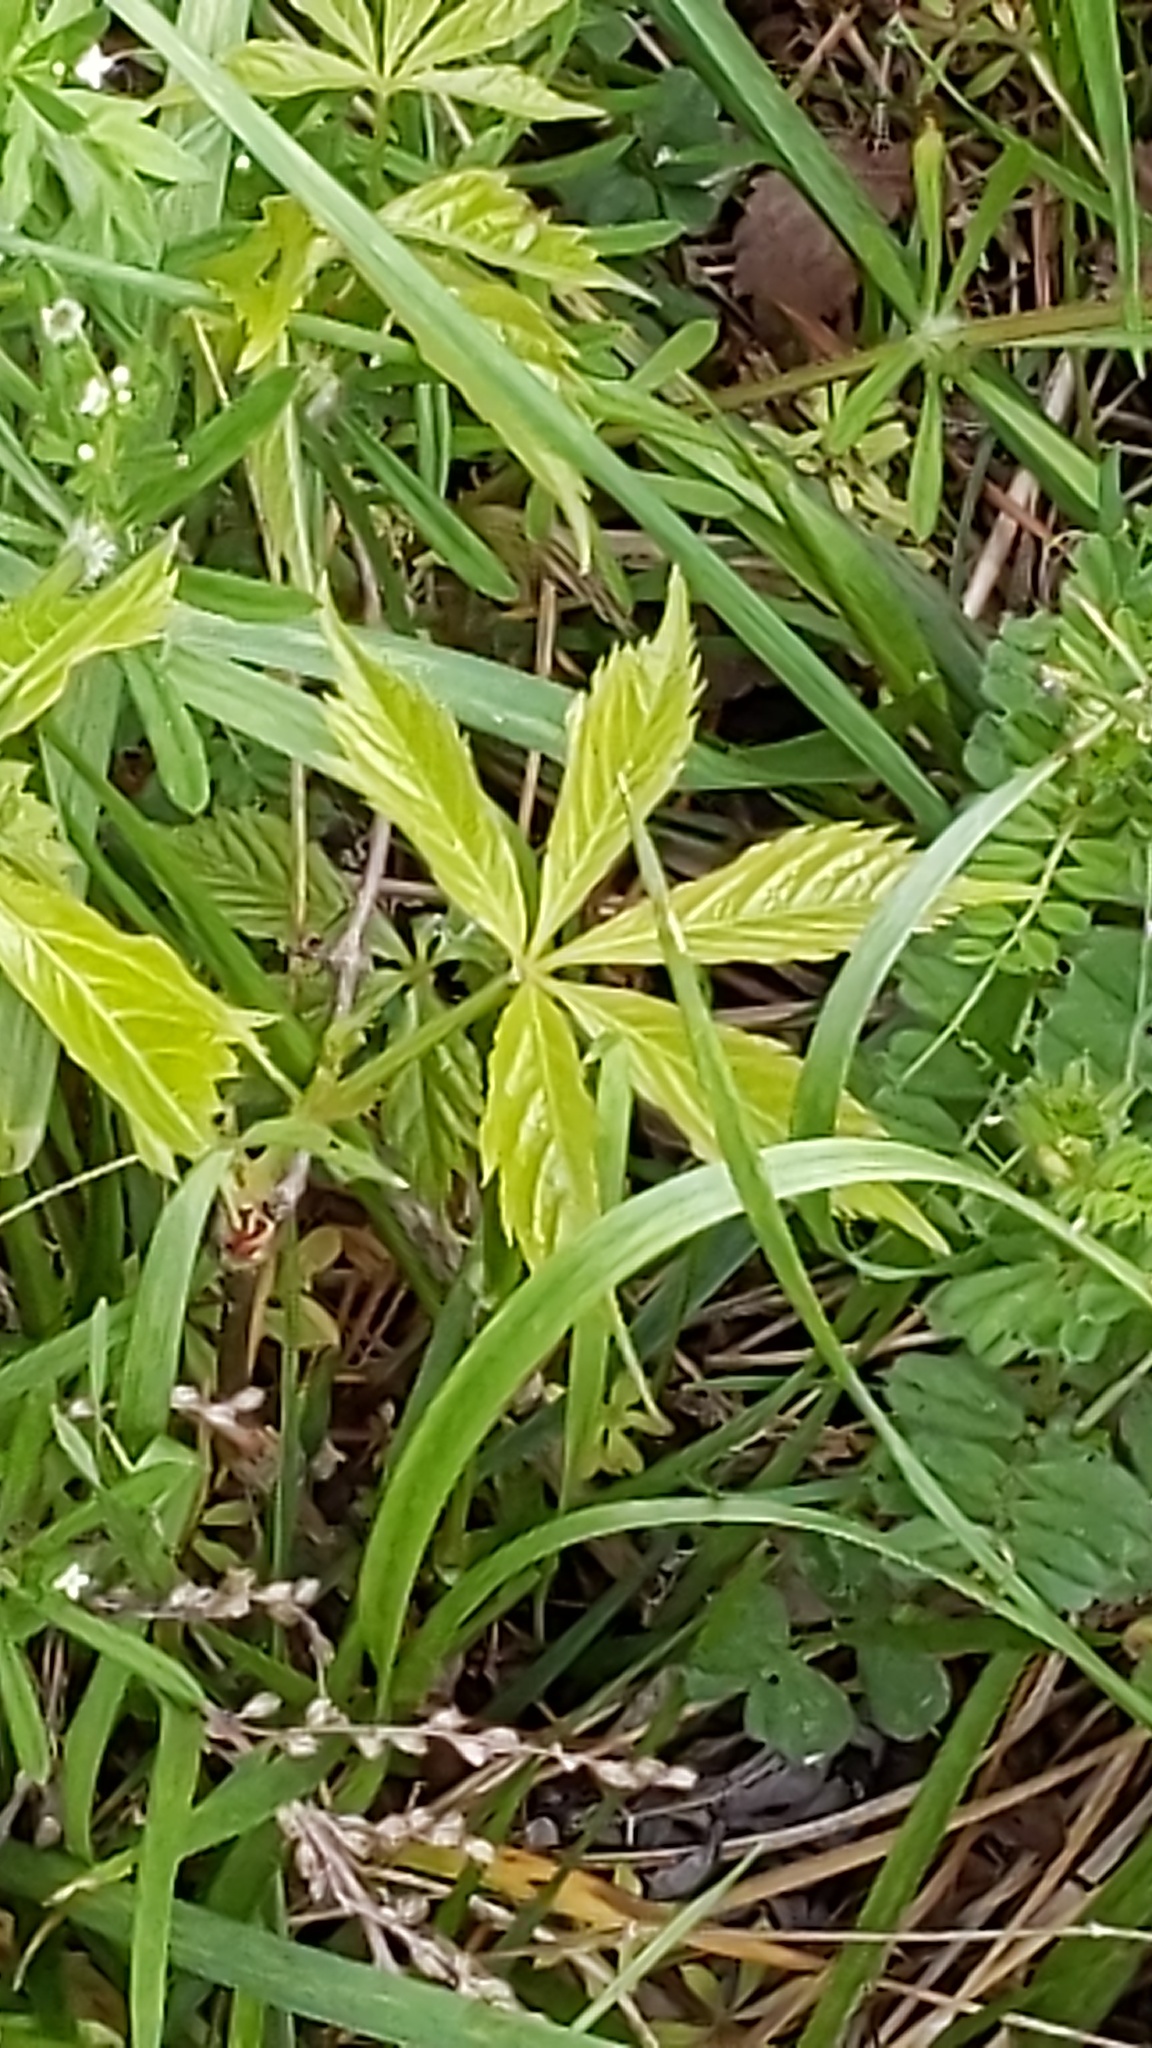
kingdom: Plantae
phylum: Tracheophyta
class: Magnoliopsida
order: Vitales
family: Vitaceae
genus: Parthenocissus
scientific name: Parthenocissus quinquefolia
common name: Virginia-creeper
